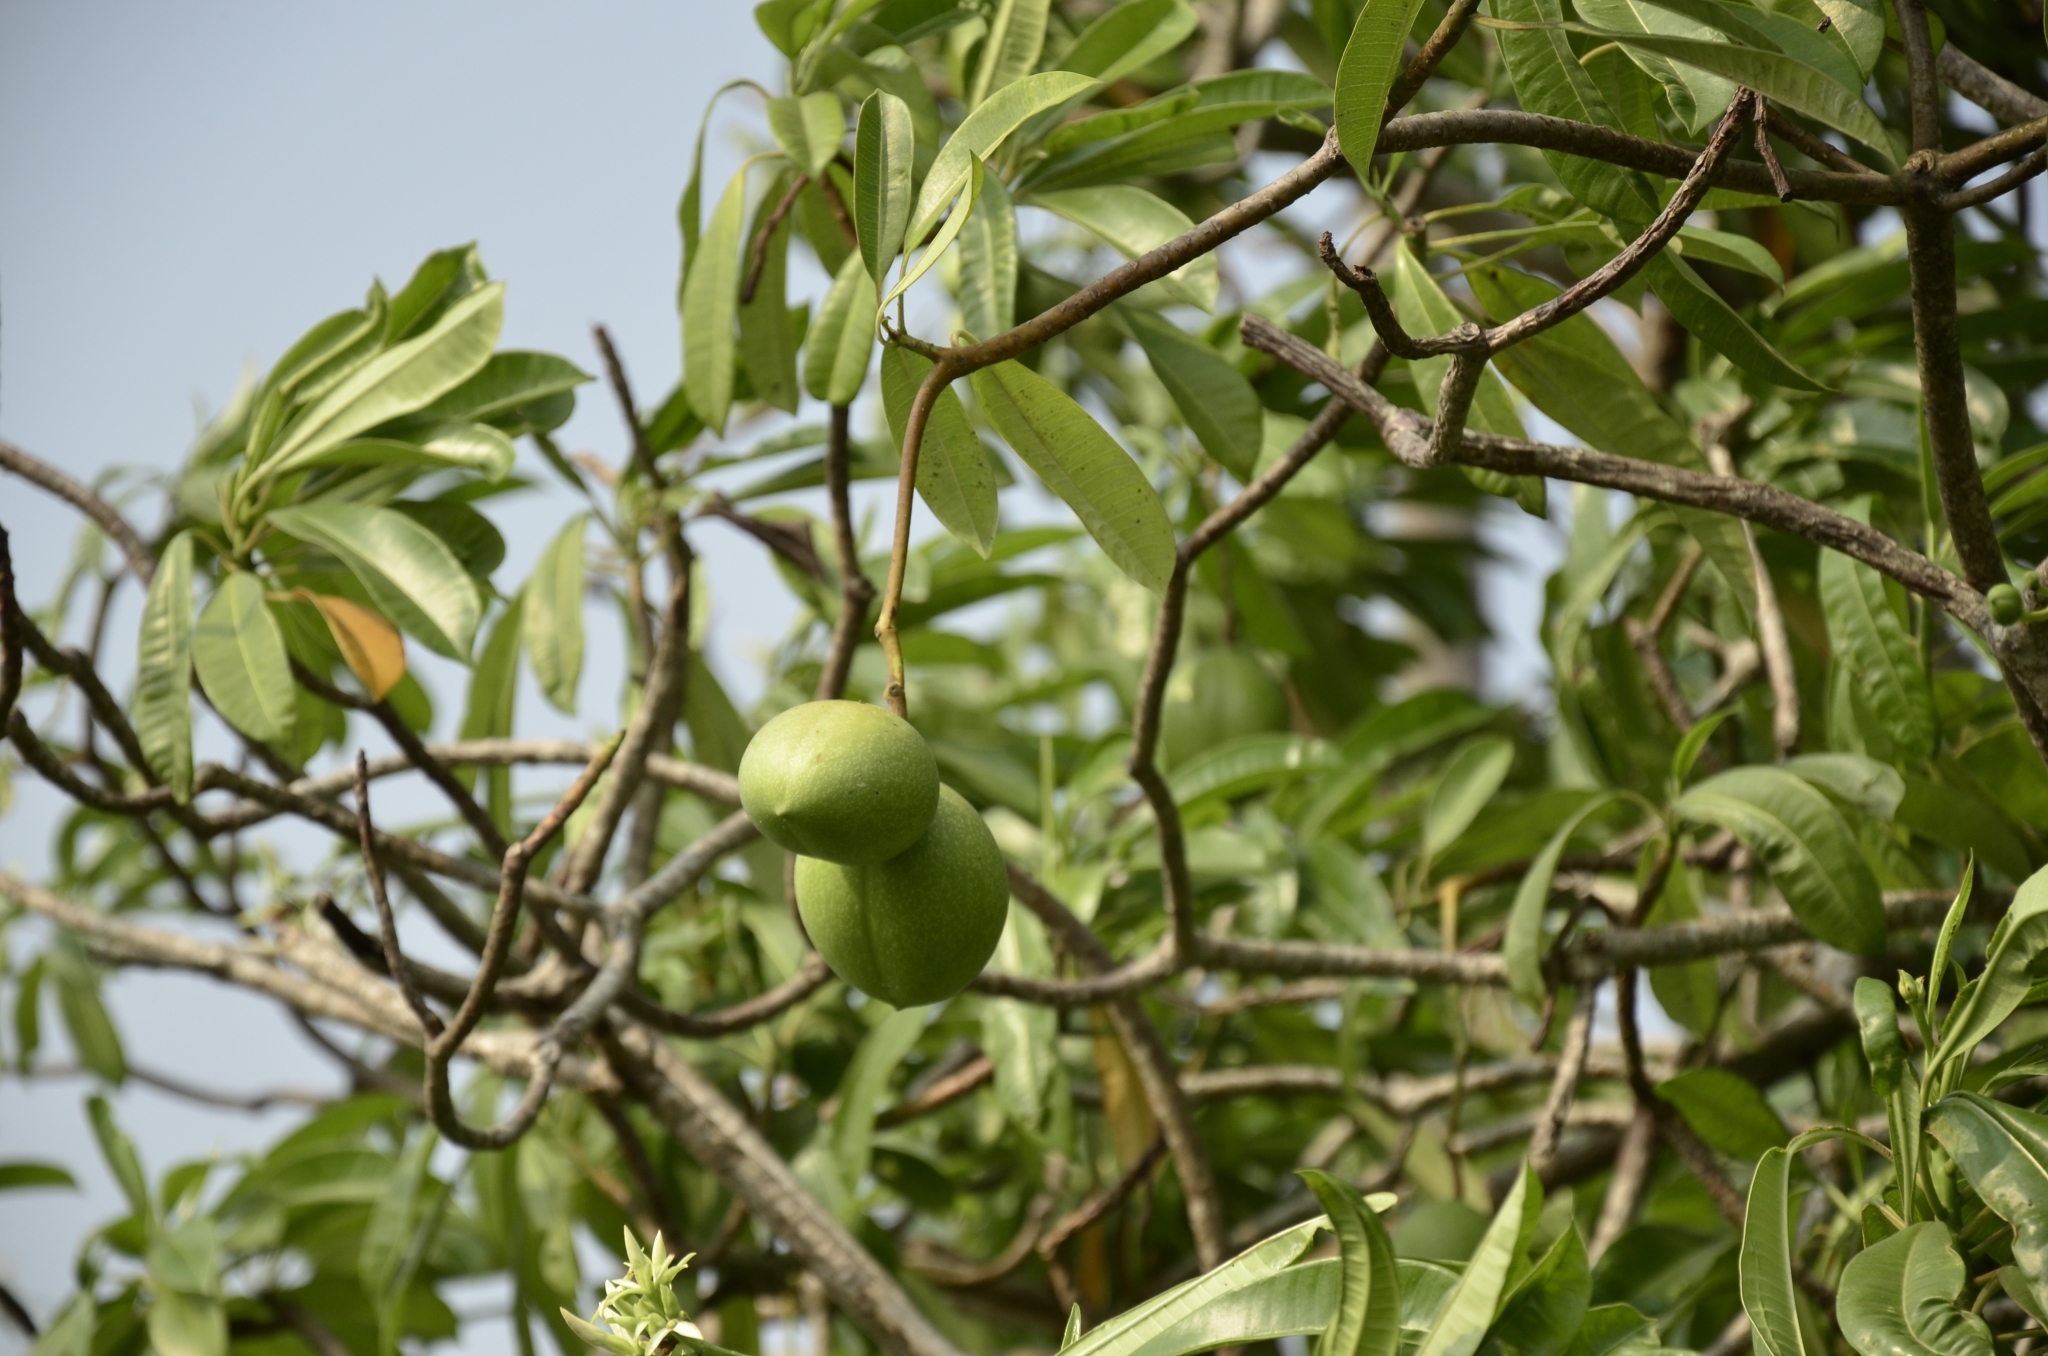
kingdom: Plantae
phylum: Tracheophyta
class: Magnoliopsida
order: Gentianales
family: Apocynaceae
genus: Cerbera
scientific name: Cerbera odollam
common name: Pong-pong
